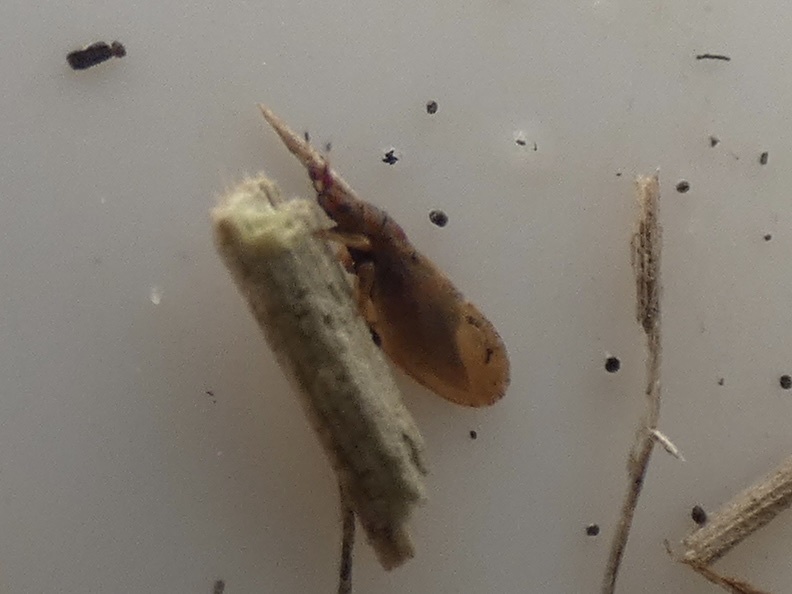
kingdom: Animalia
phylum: Arthropoda
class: Insecta
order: Hemiptera
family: Liviidae
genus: Livia
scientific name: Livia junci
